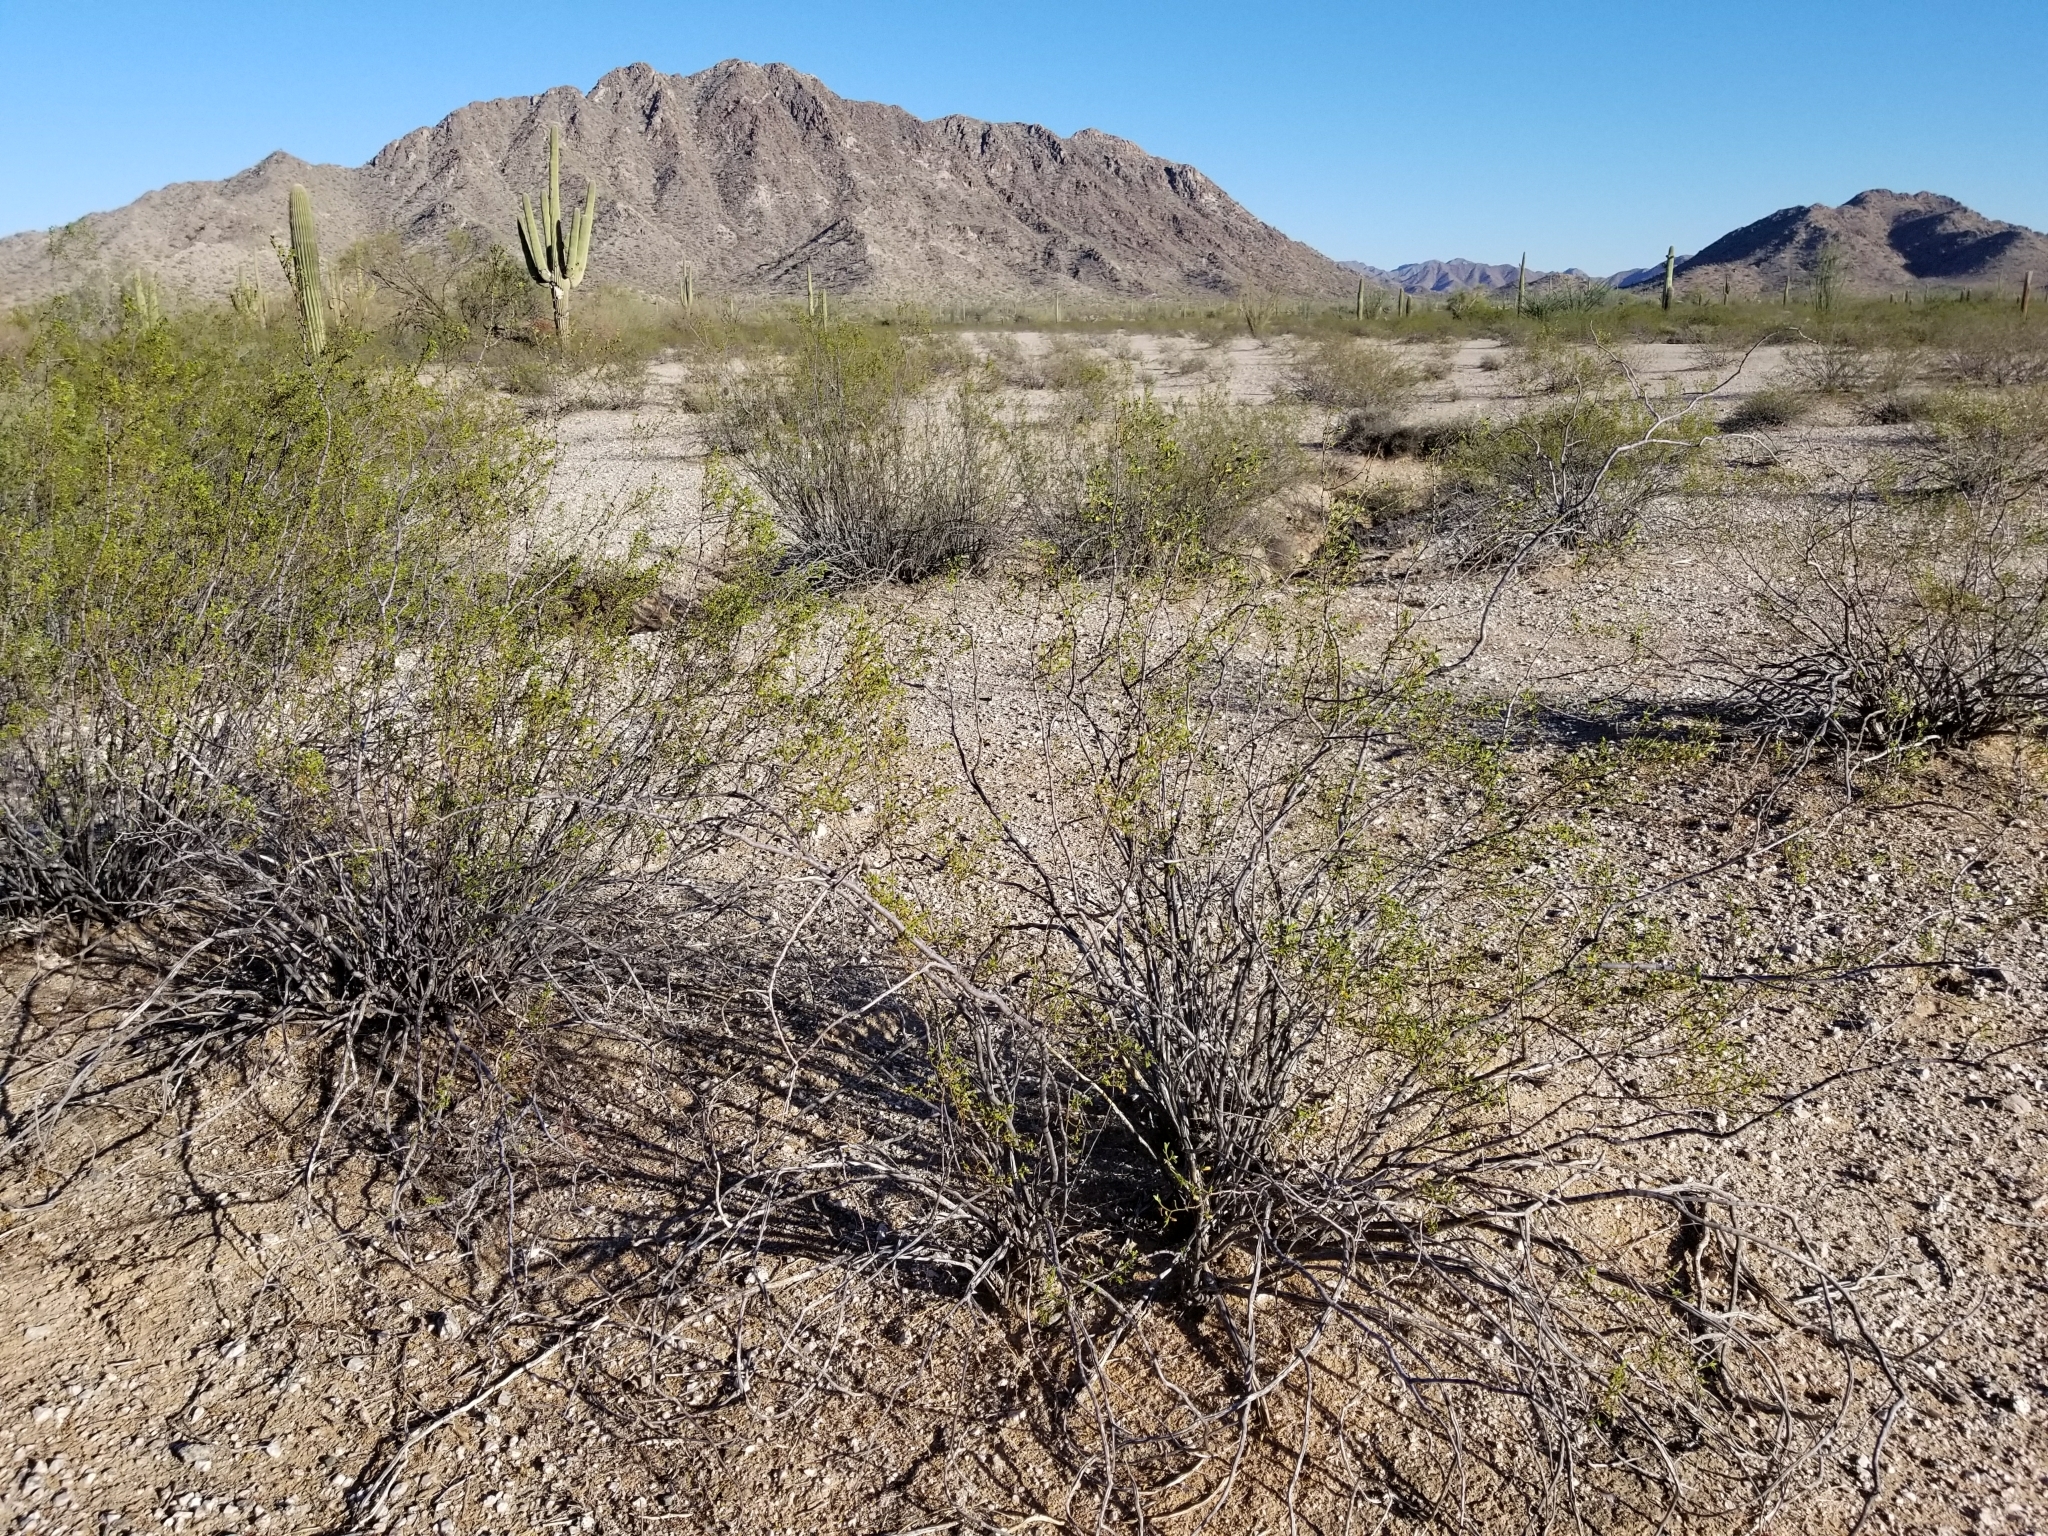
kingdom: Plantae
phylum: Tracheophyta
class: Magnoliopsida
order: Zygophyllales
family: Zygophyllaceae
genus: Larrea
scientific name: Larrea tridentata
